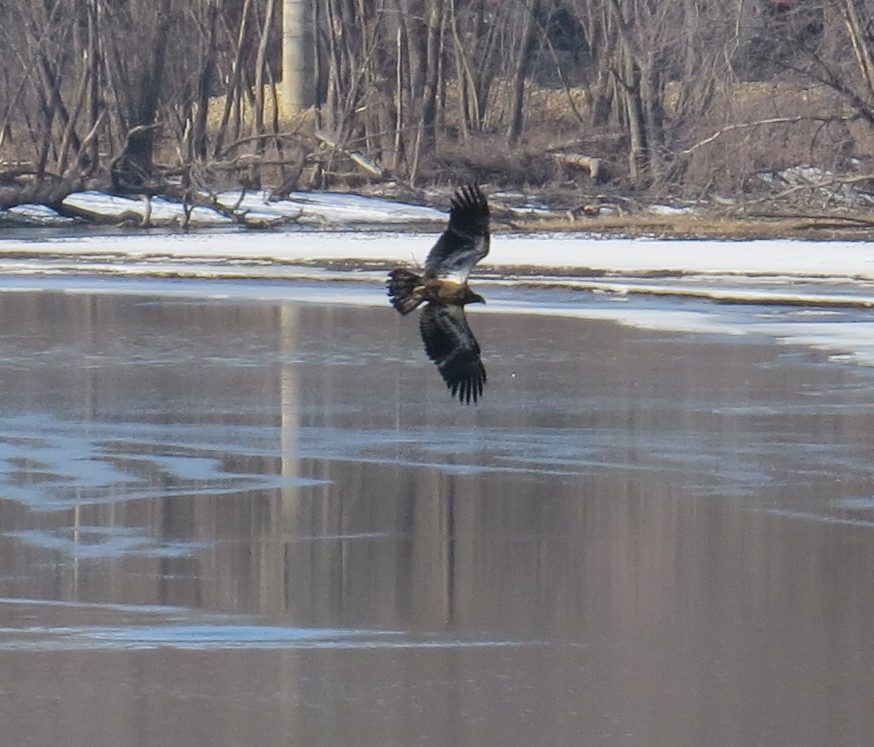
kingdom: Animalia
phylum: Chordata
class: Aves
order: Accipitriformes
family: Accipitridae
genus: Haliaeetus
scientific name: Haliaeetus leucocephalus
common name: Bald eagle
